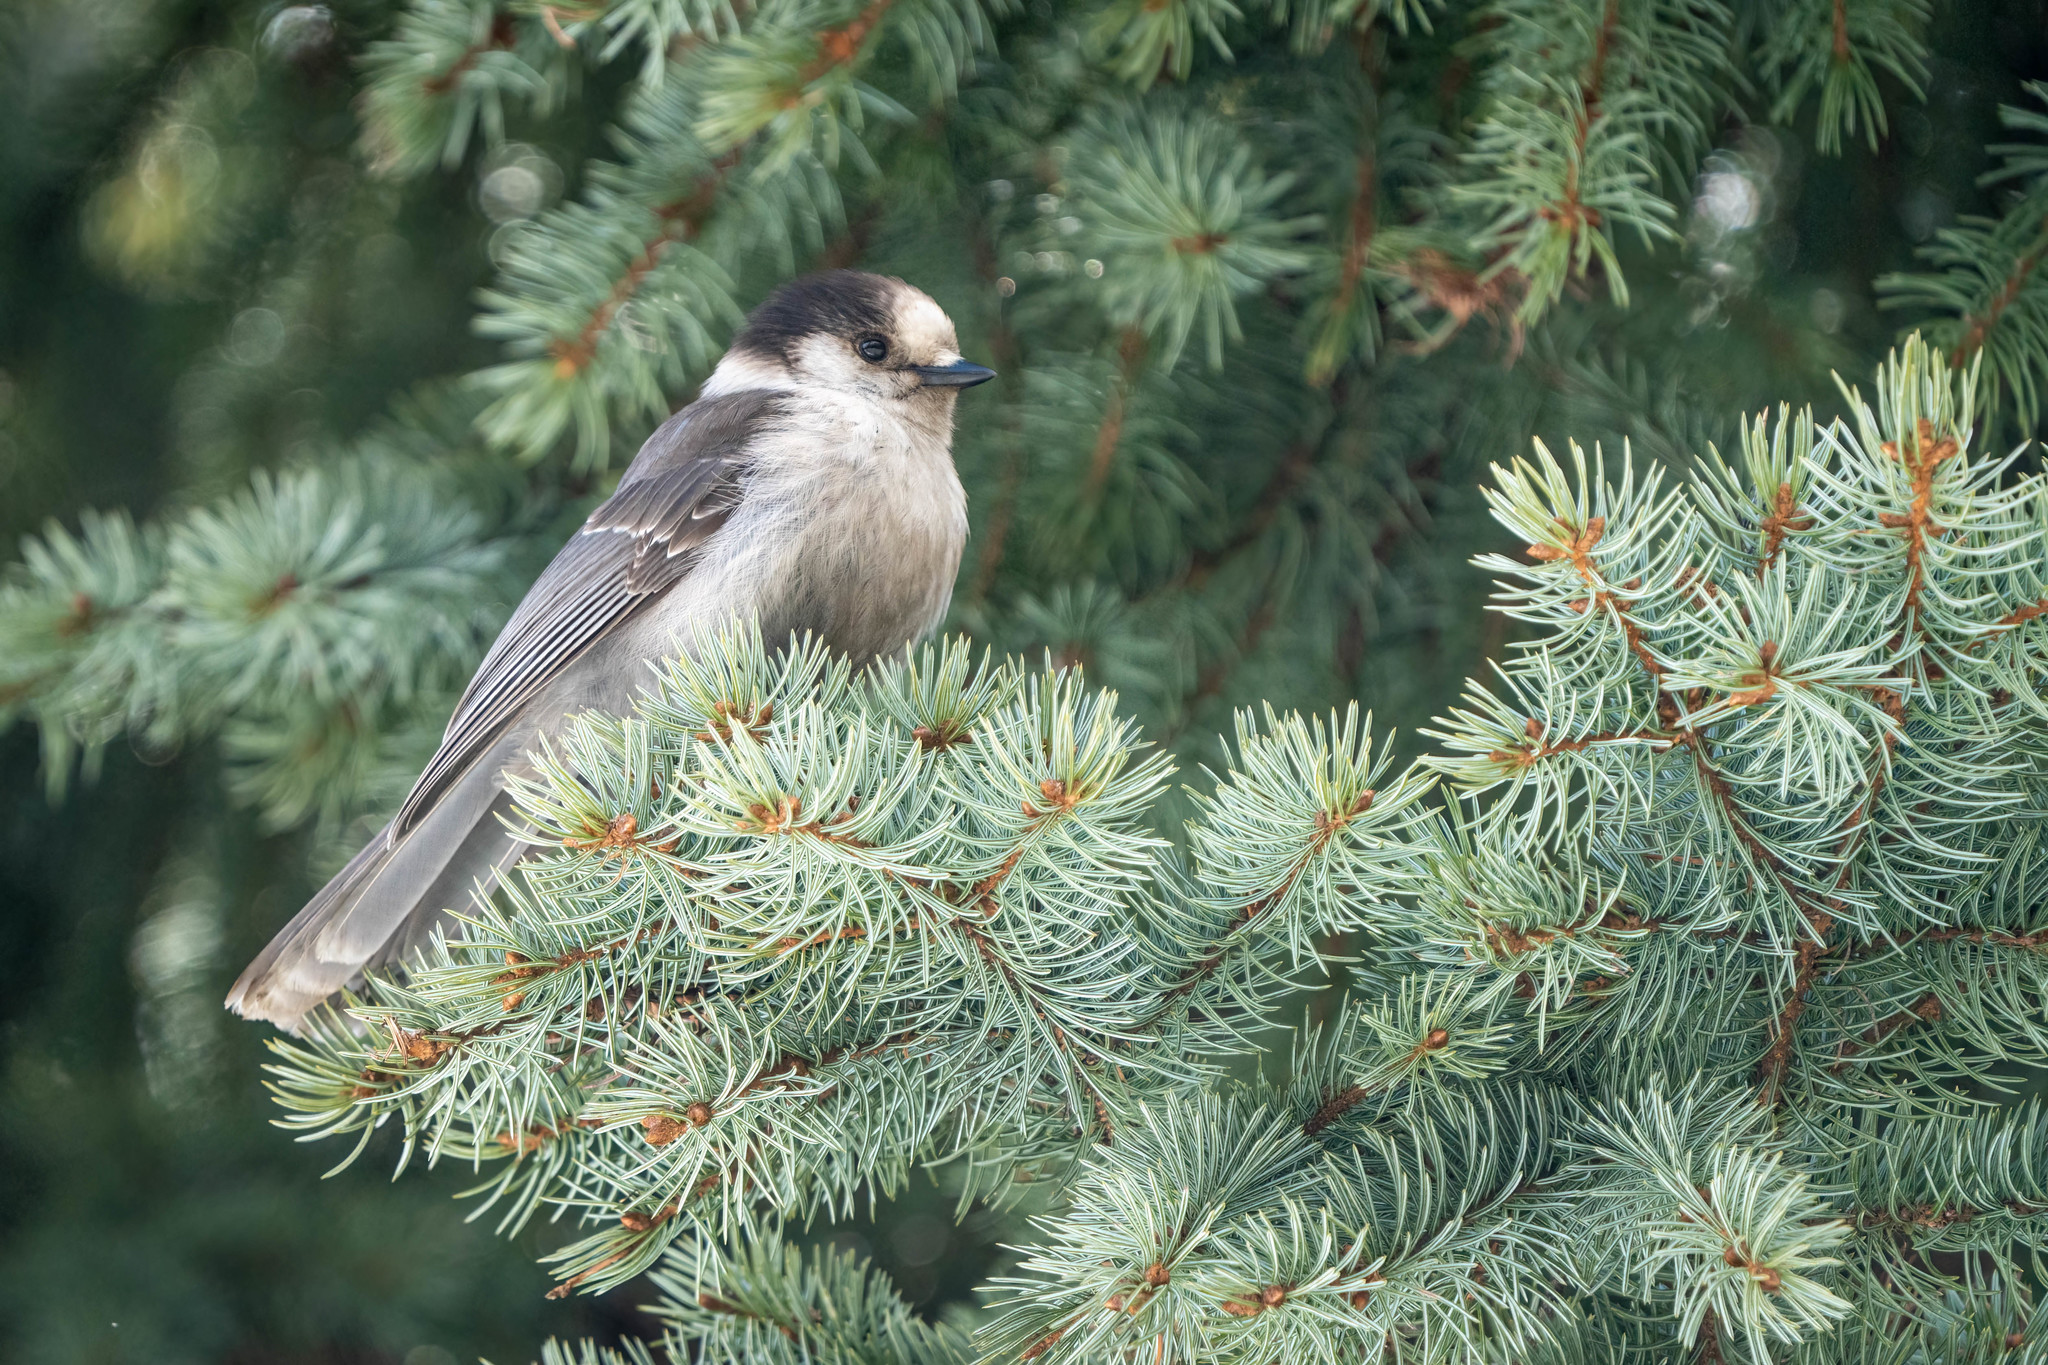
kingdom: Animalia
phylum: Chordata
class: Aves
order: Passeriformes
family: Corvidae
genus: Perisoreus
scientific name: Perisoreus canadensis
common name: Gray jay
